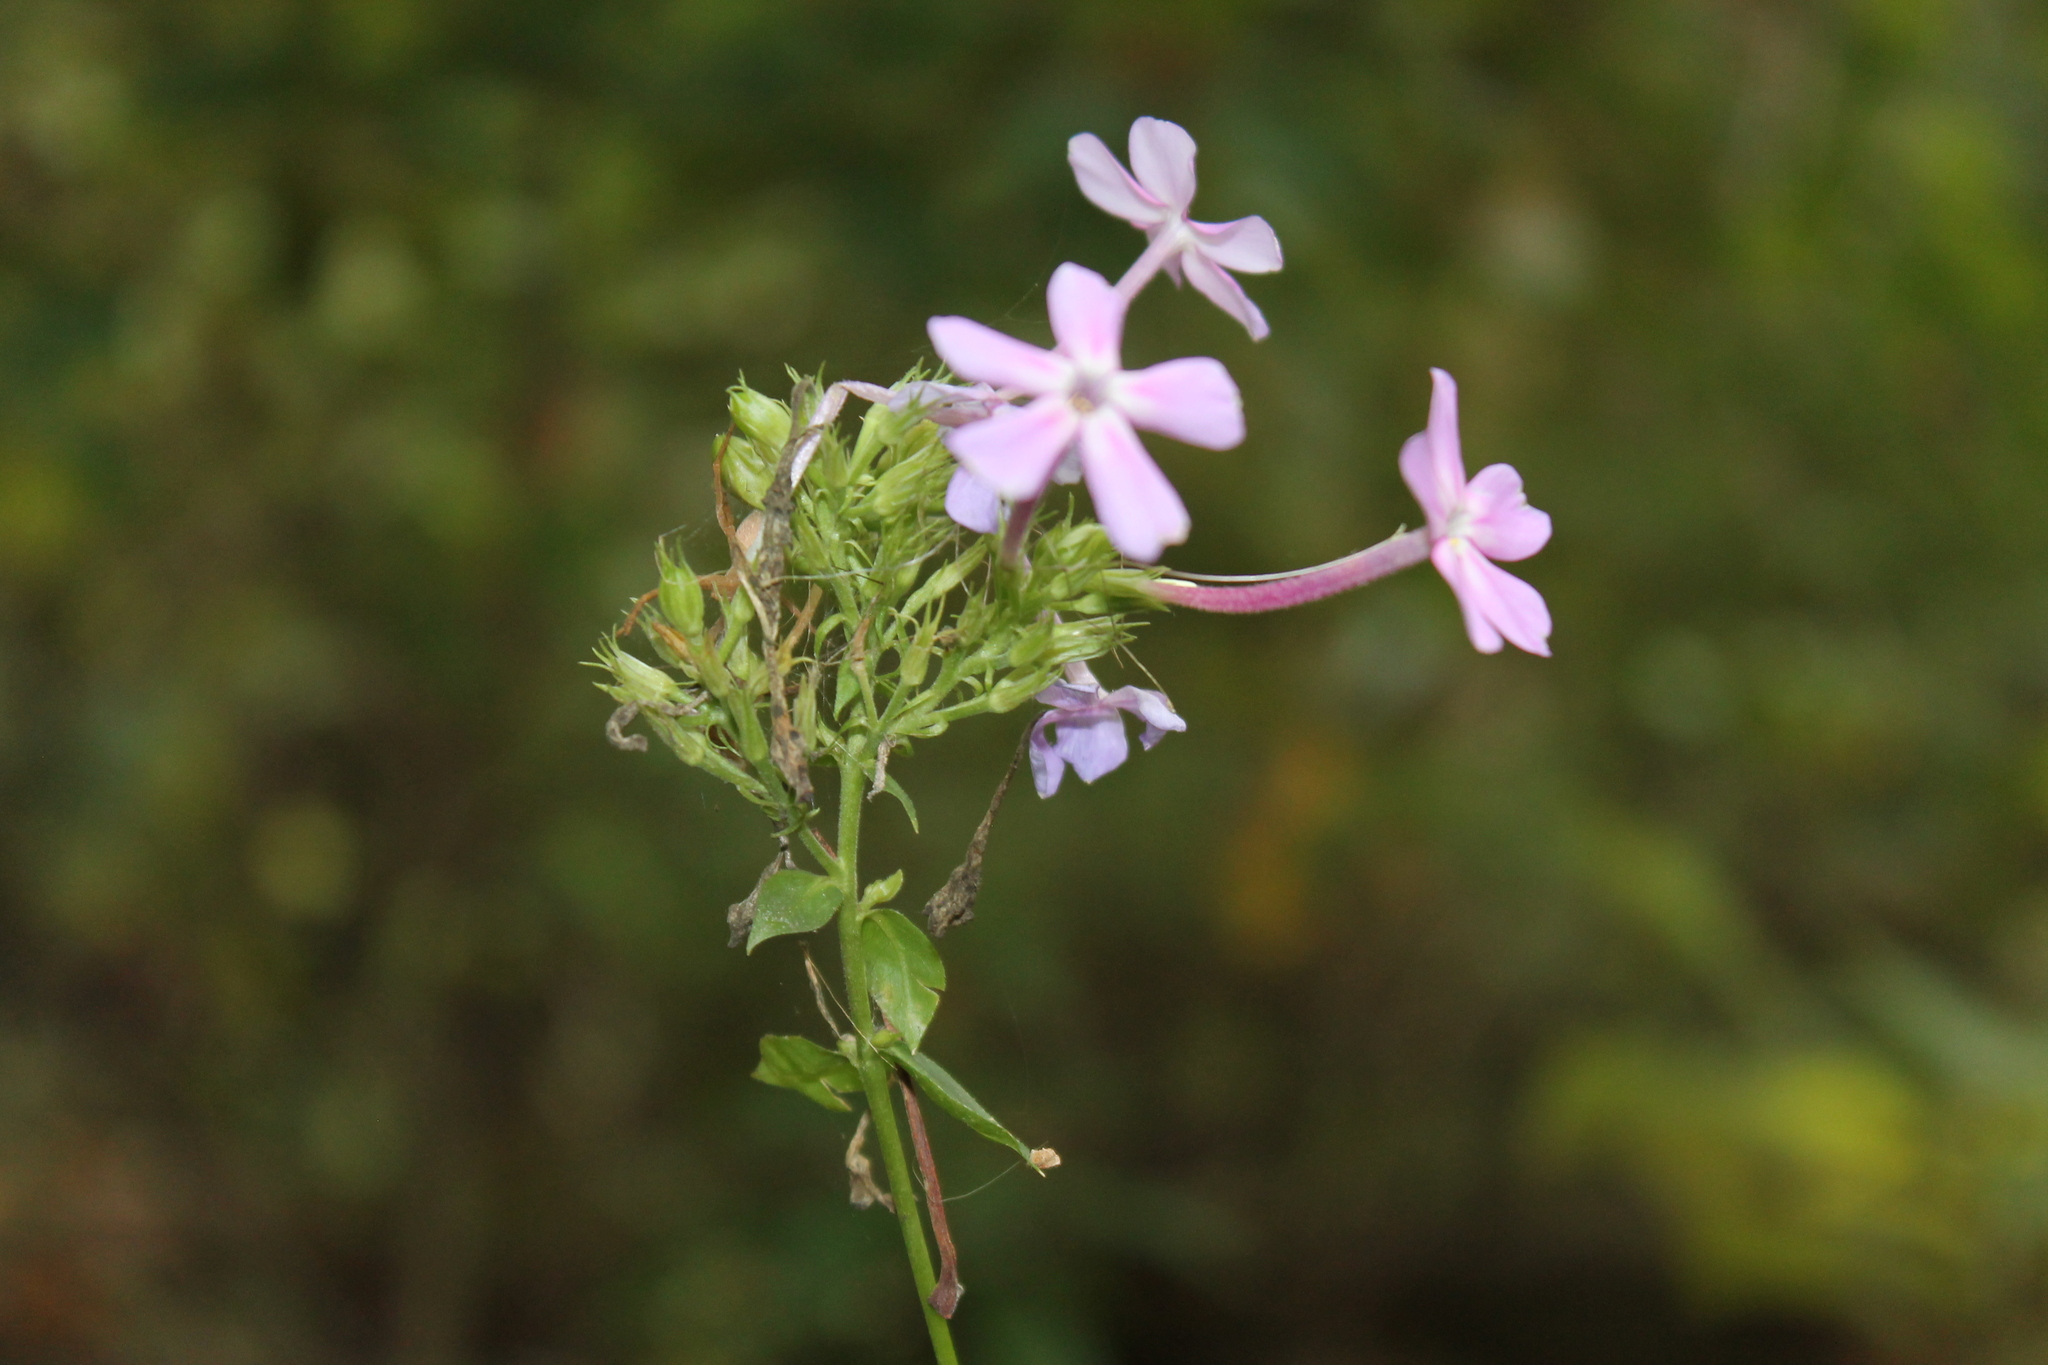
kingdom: Plantae
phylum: Tracheophyta
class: Magnoliopsida
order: Ericales
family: Polemoniaceae
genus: Phlox
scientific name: Phlox paniculata
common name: Fall phlox
